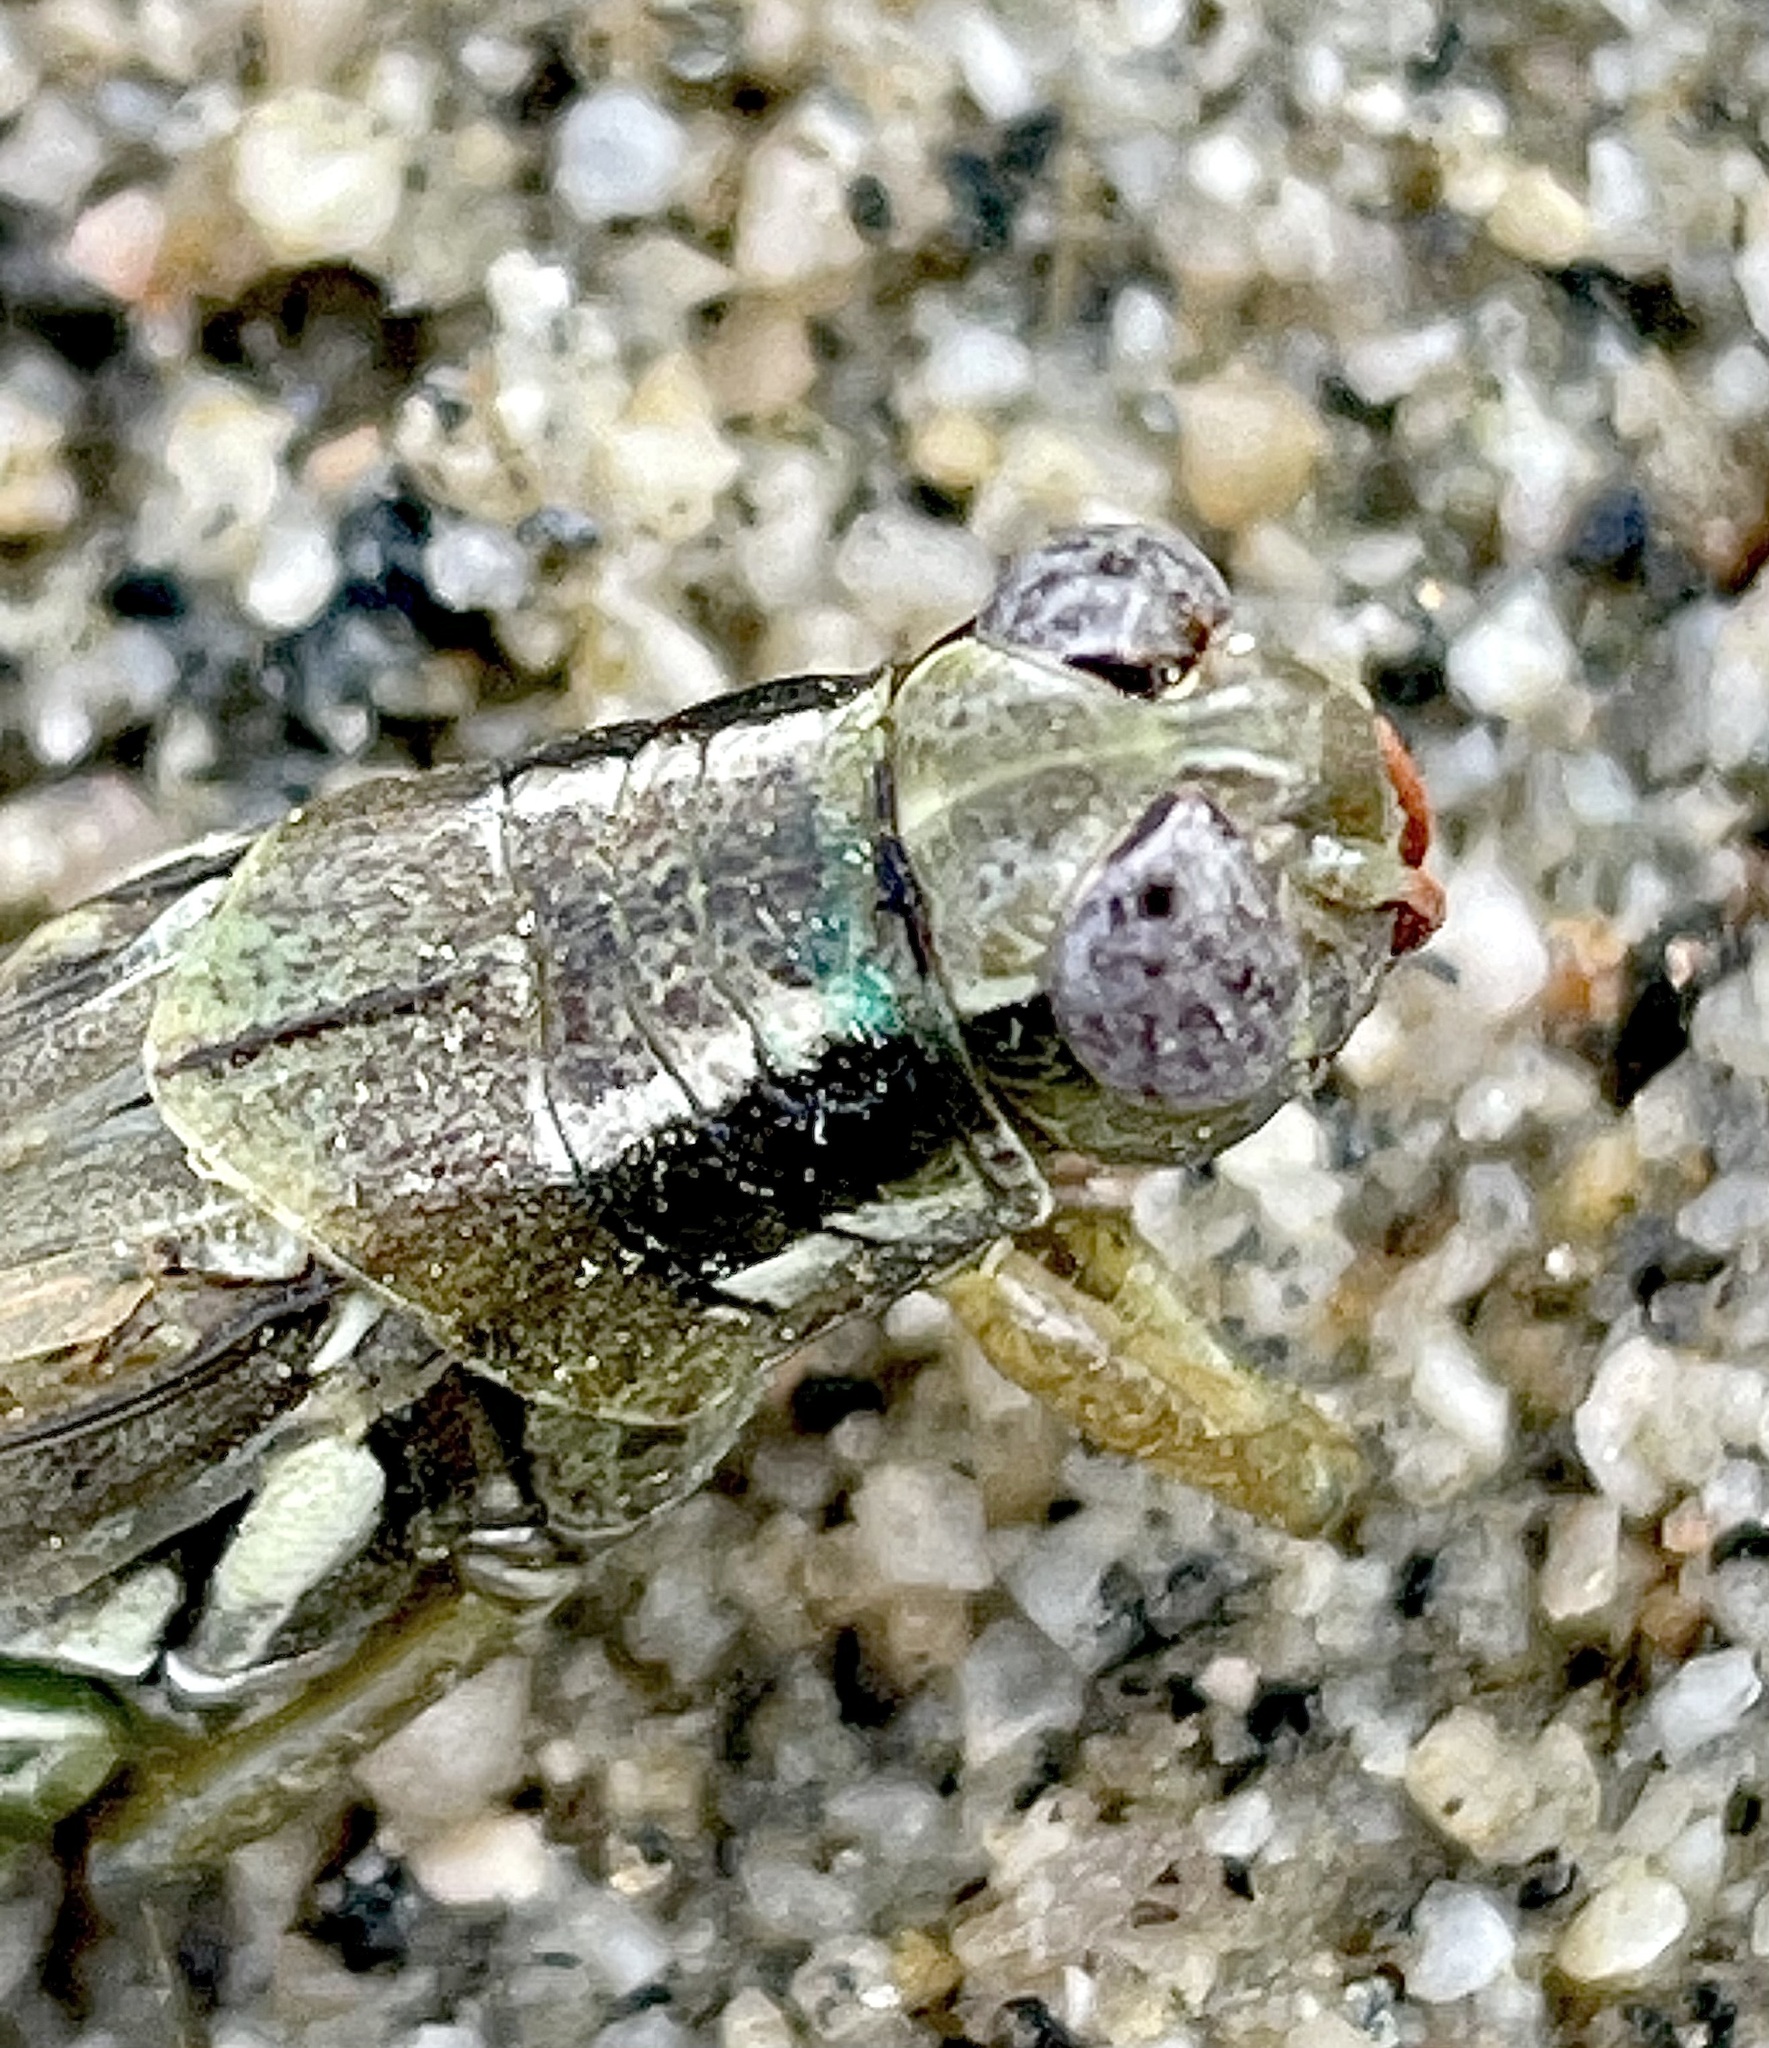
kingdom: Animalia
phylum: Arthropoda
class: Insecta
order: Orthoptera
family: Acrididae
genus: Melanoplus
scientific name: Melanoplus herbaceus
